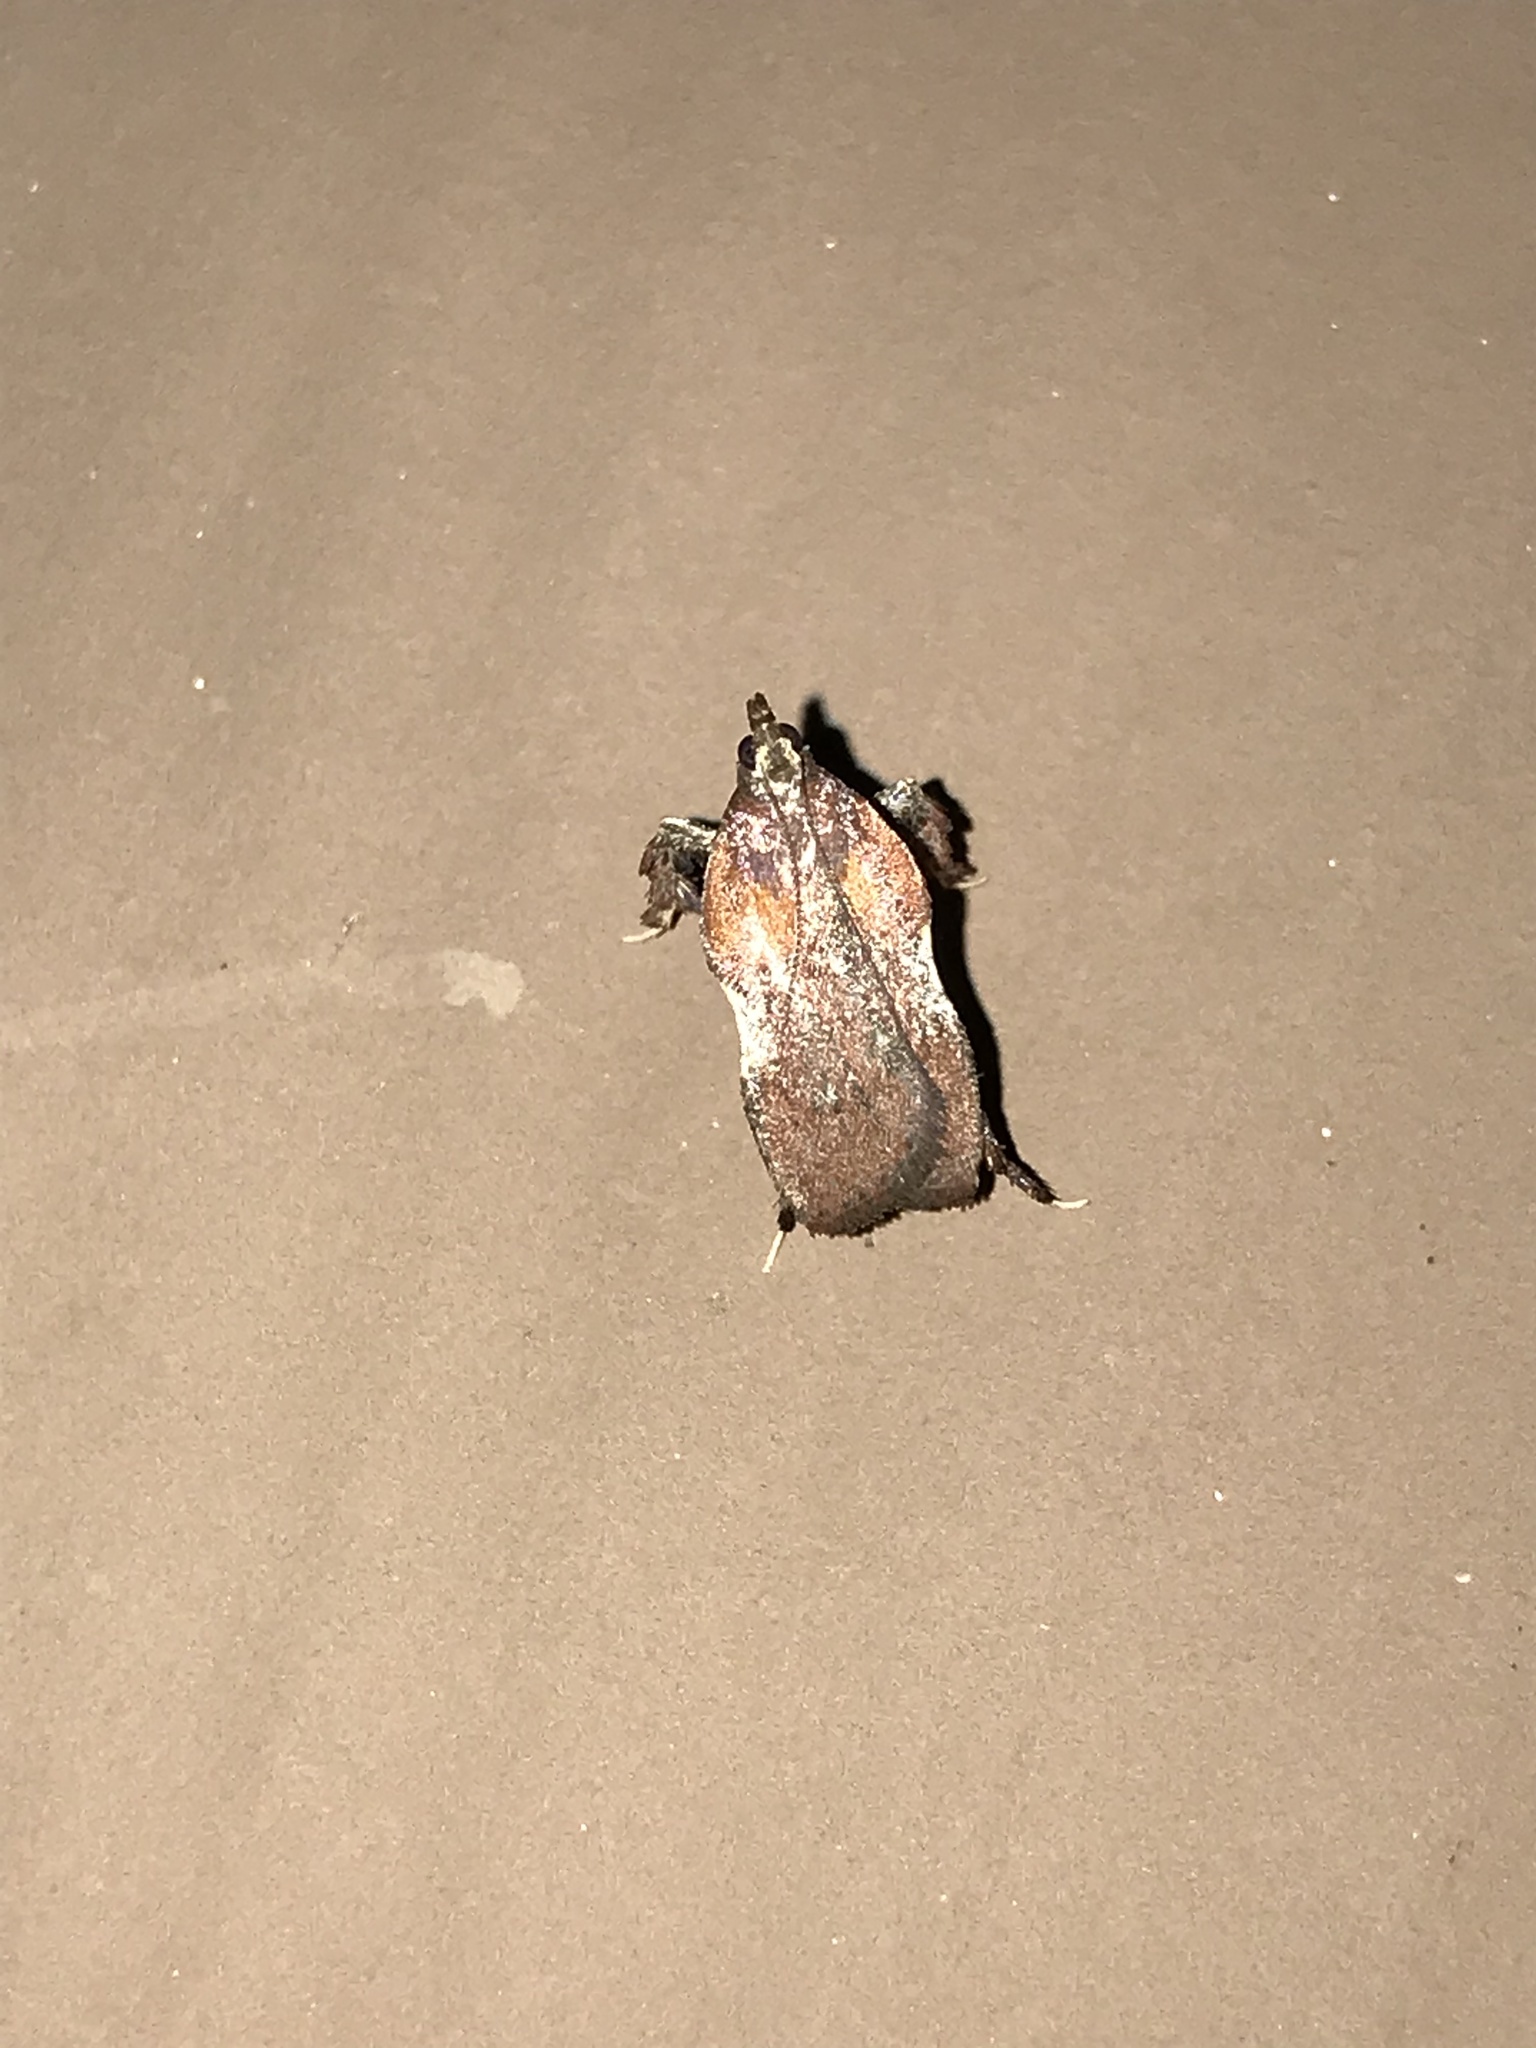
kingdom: Animalia
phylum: Arthropoda
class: Insecta
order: Lepidoptera
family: Pyralidae
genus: Galasa
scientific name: Galasa nigrinodis
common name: Boxwood leaftier moth
